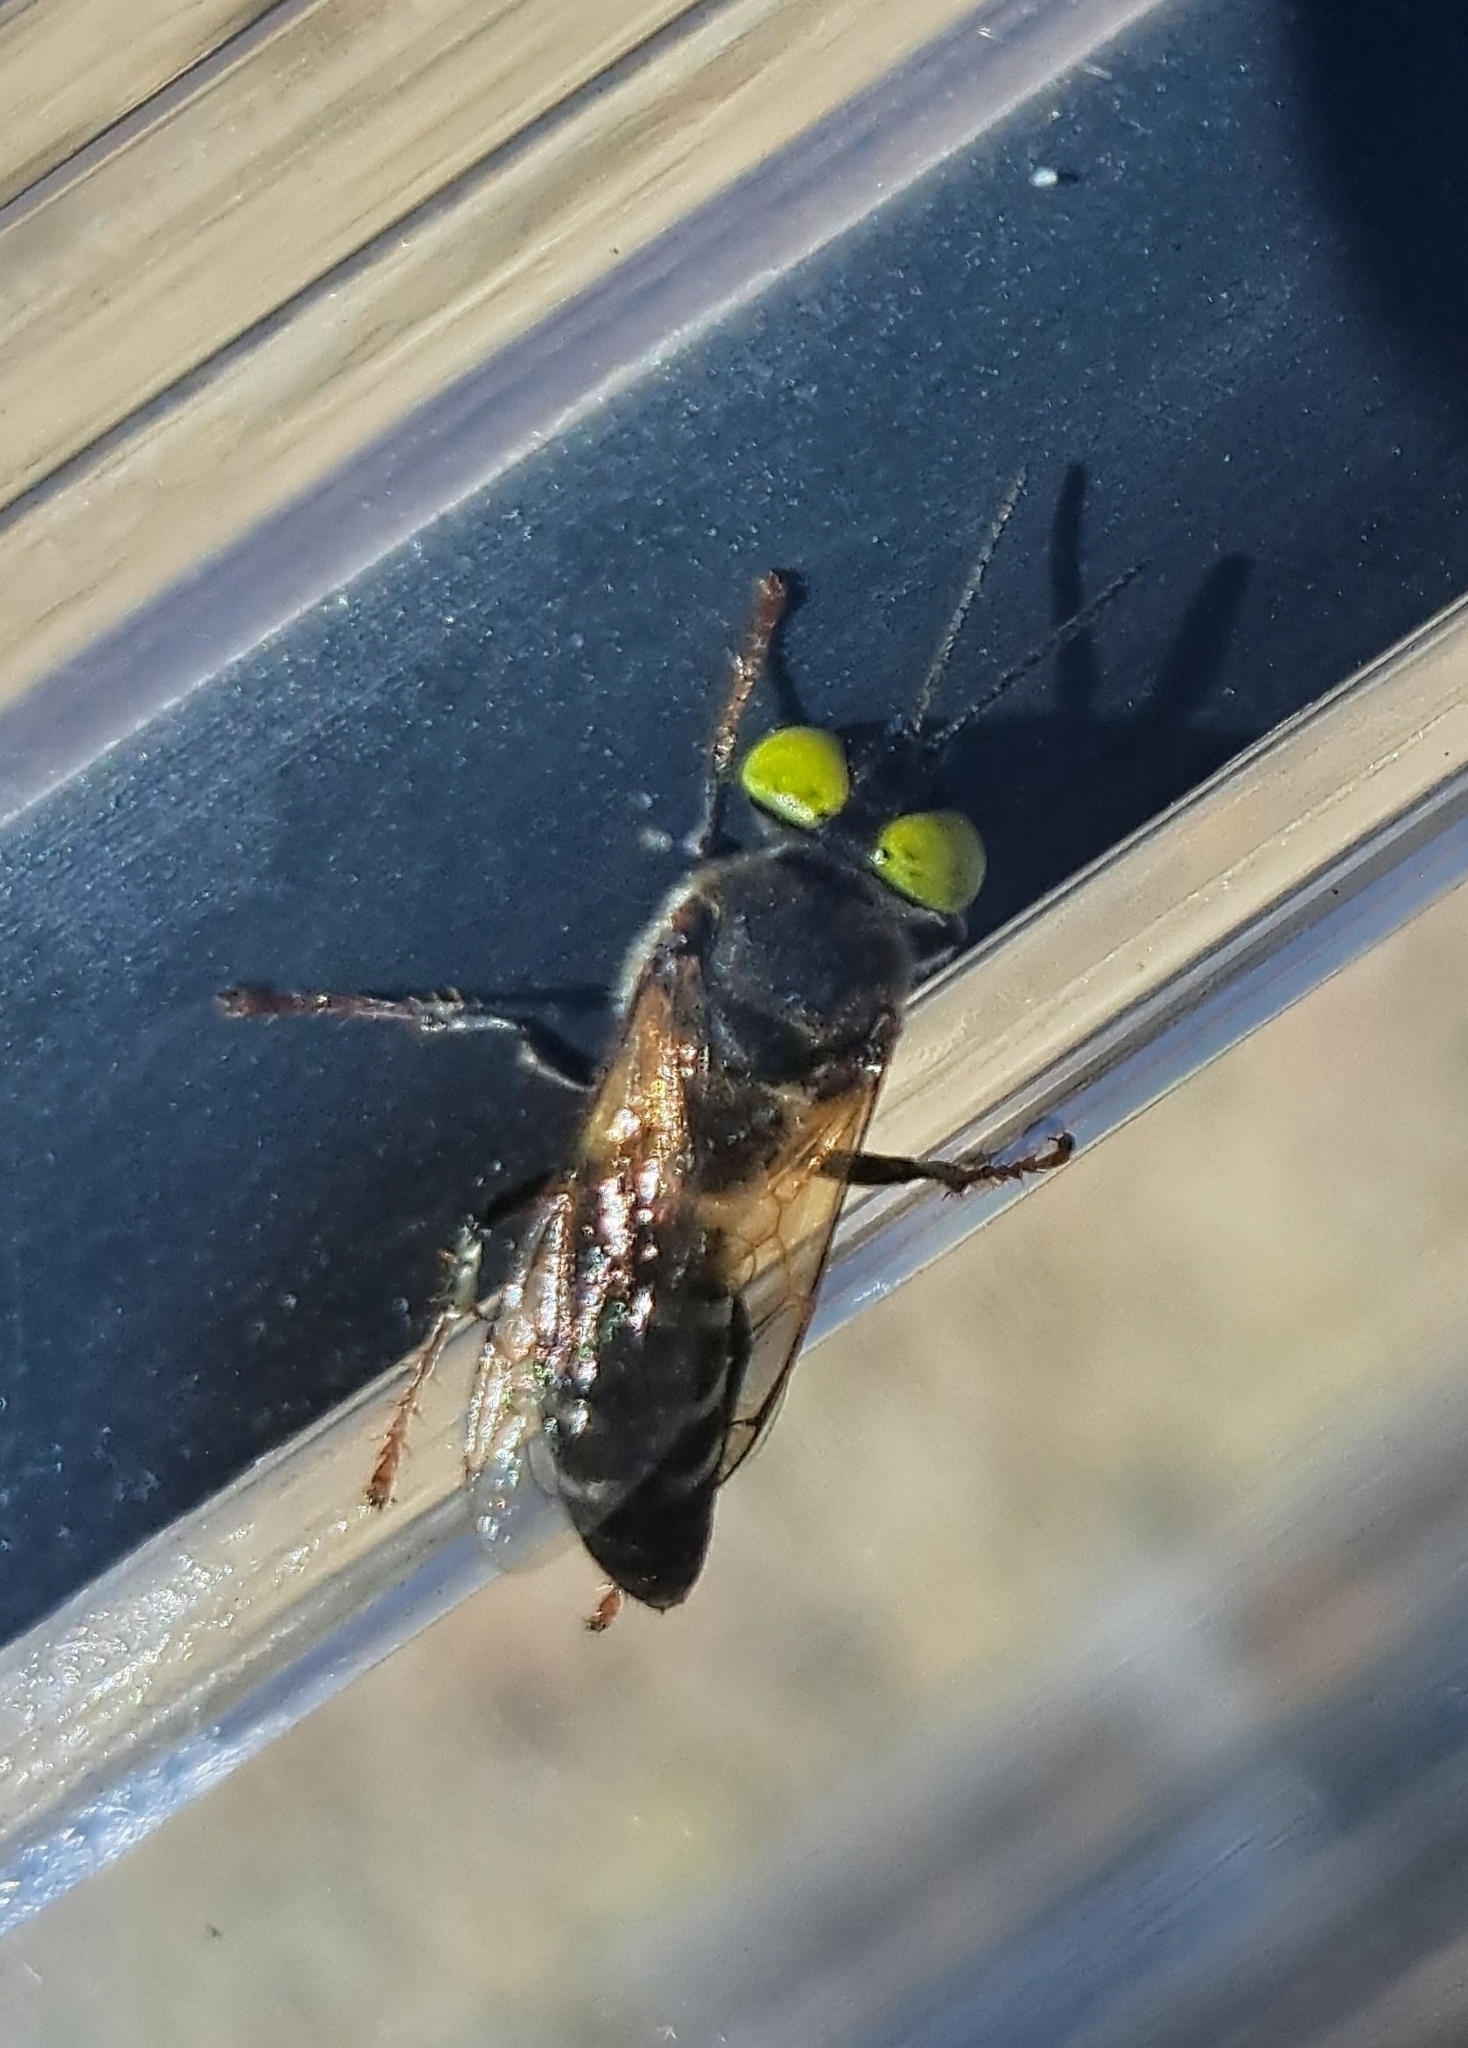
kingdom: Animalia
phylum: Arthropoda
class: Insecta
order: Hymenoptera
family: Crabronidae
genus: Tachysphex
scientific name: Tachysphex
